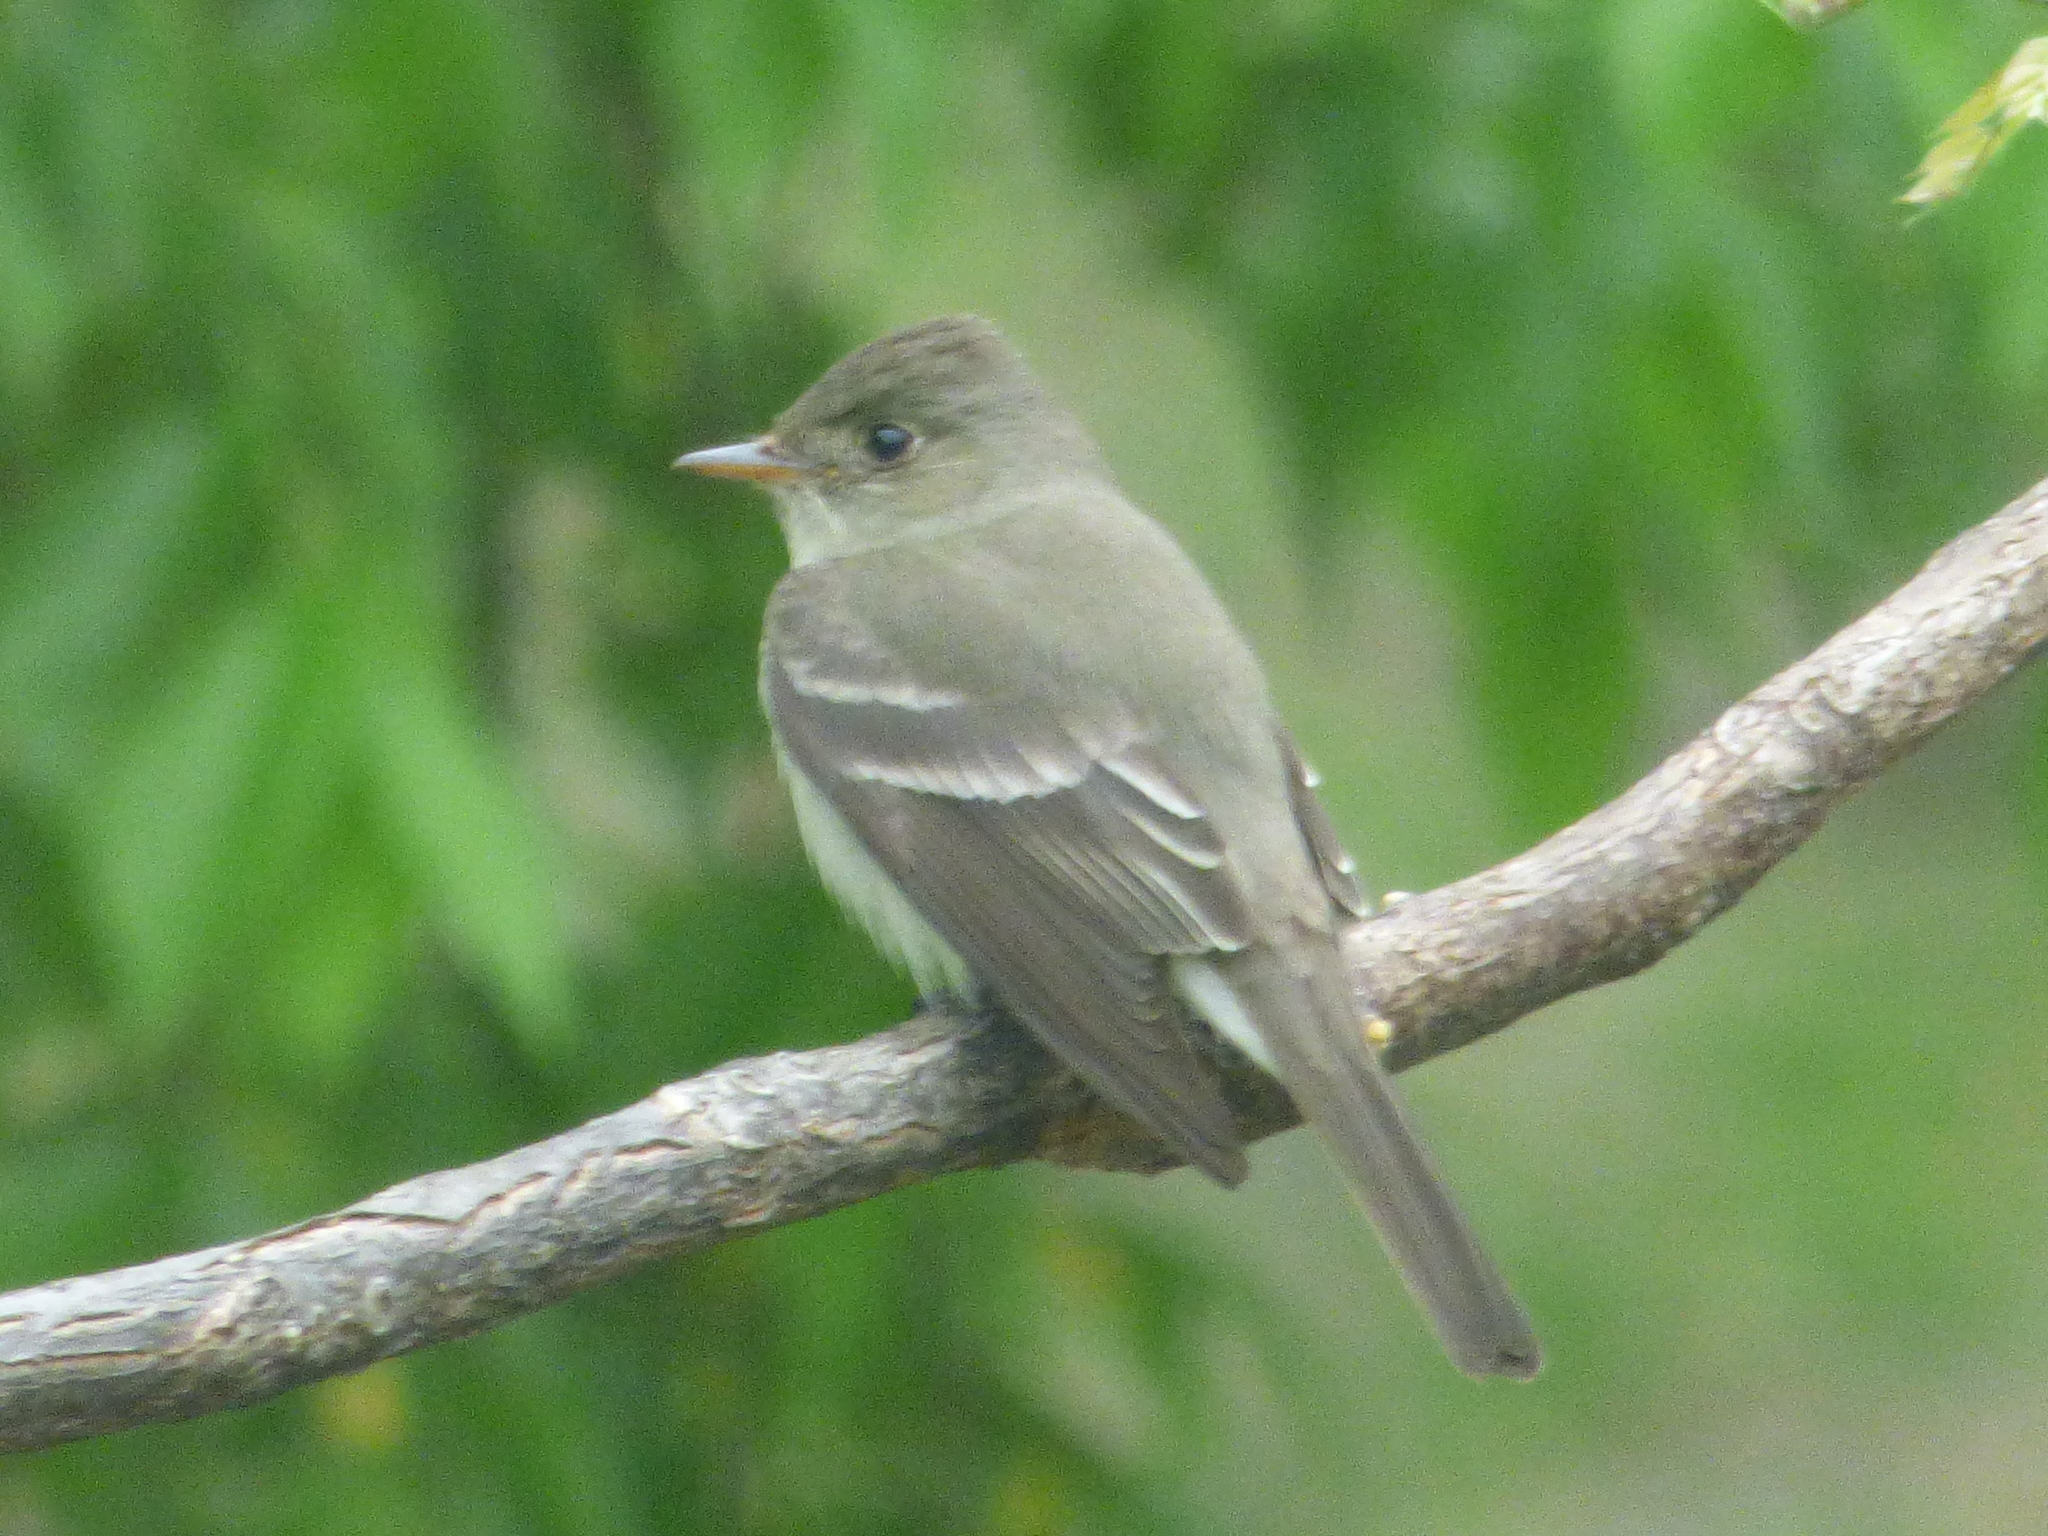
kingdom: Animalia
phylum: Chordata
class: Aves
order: Passeriformes
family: Tyrannidae
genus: Contopus
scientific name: Contopus virens
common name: Eastern wood-pewee
